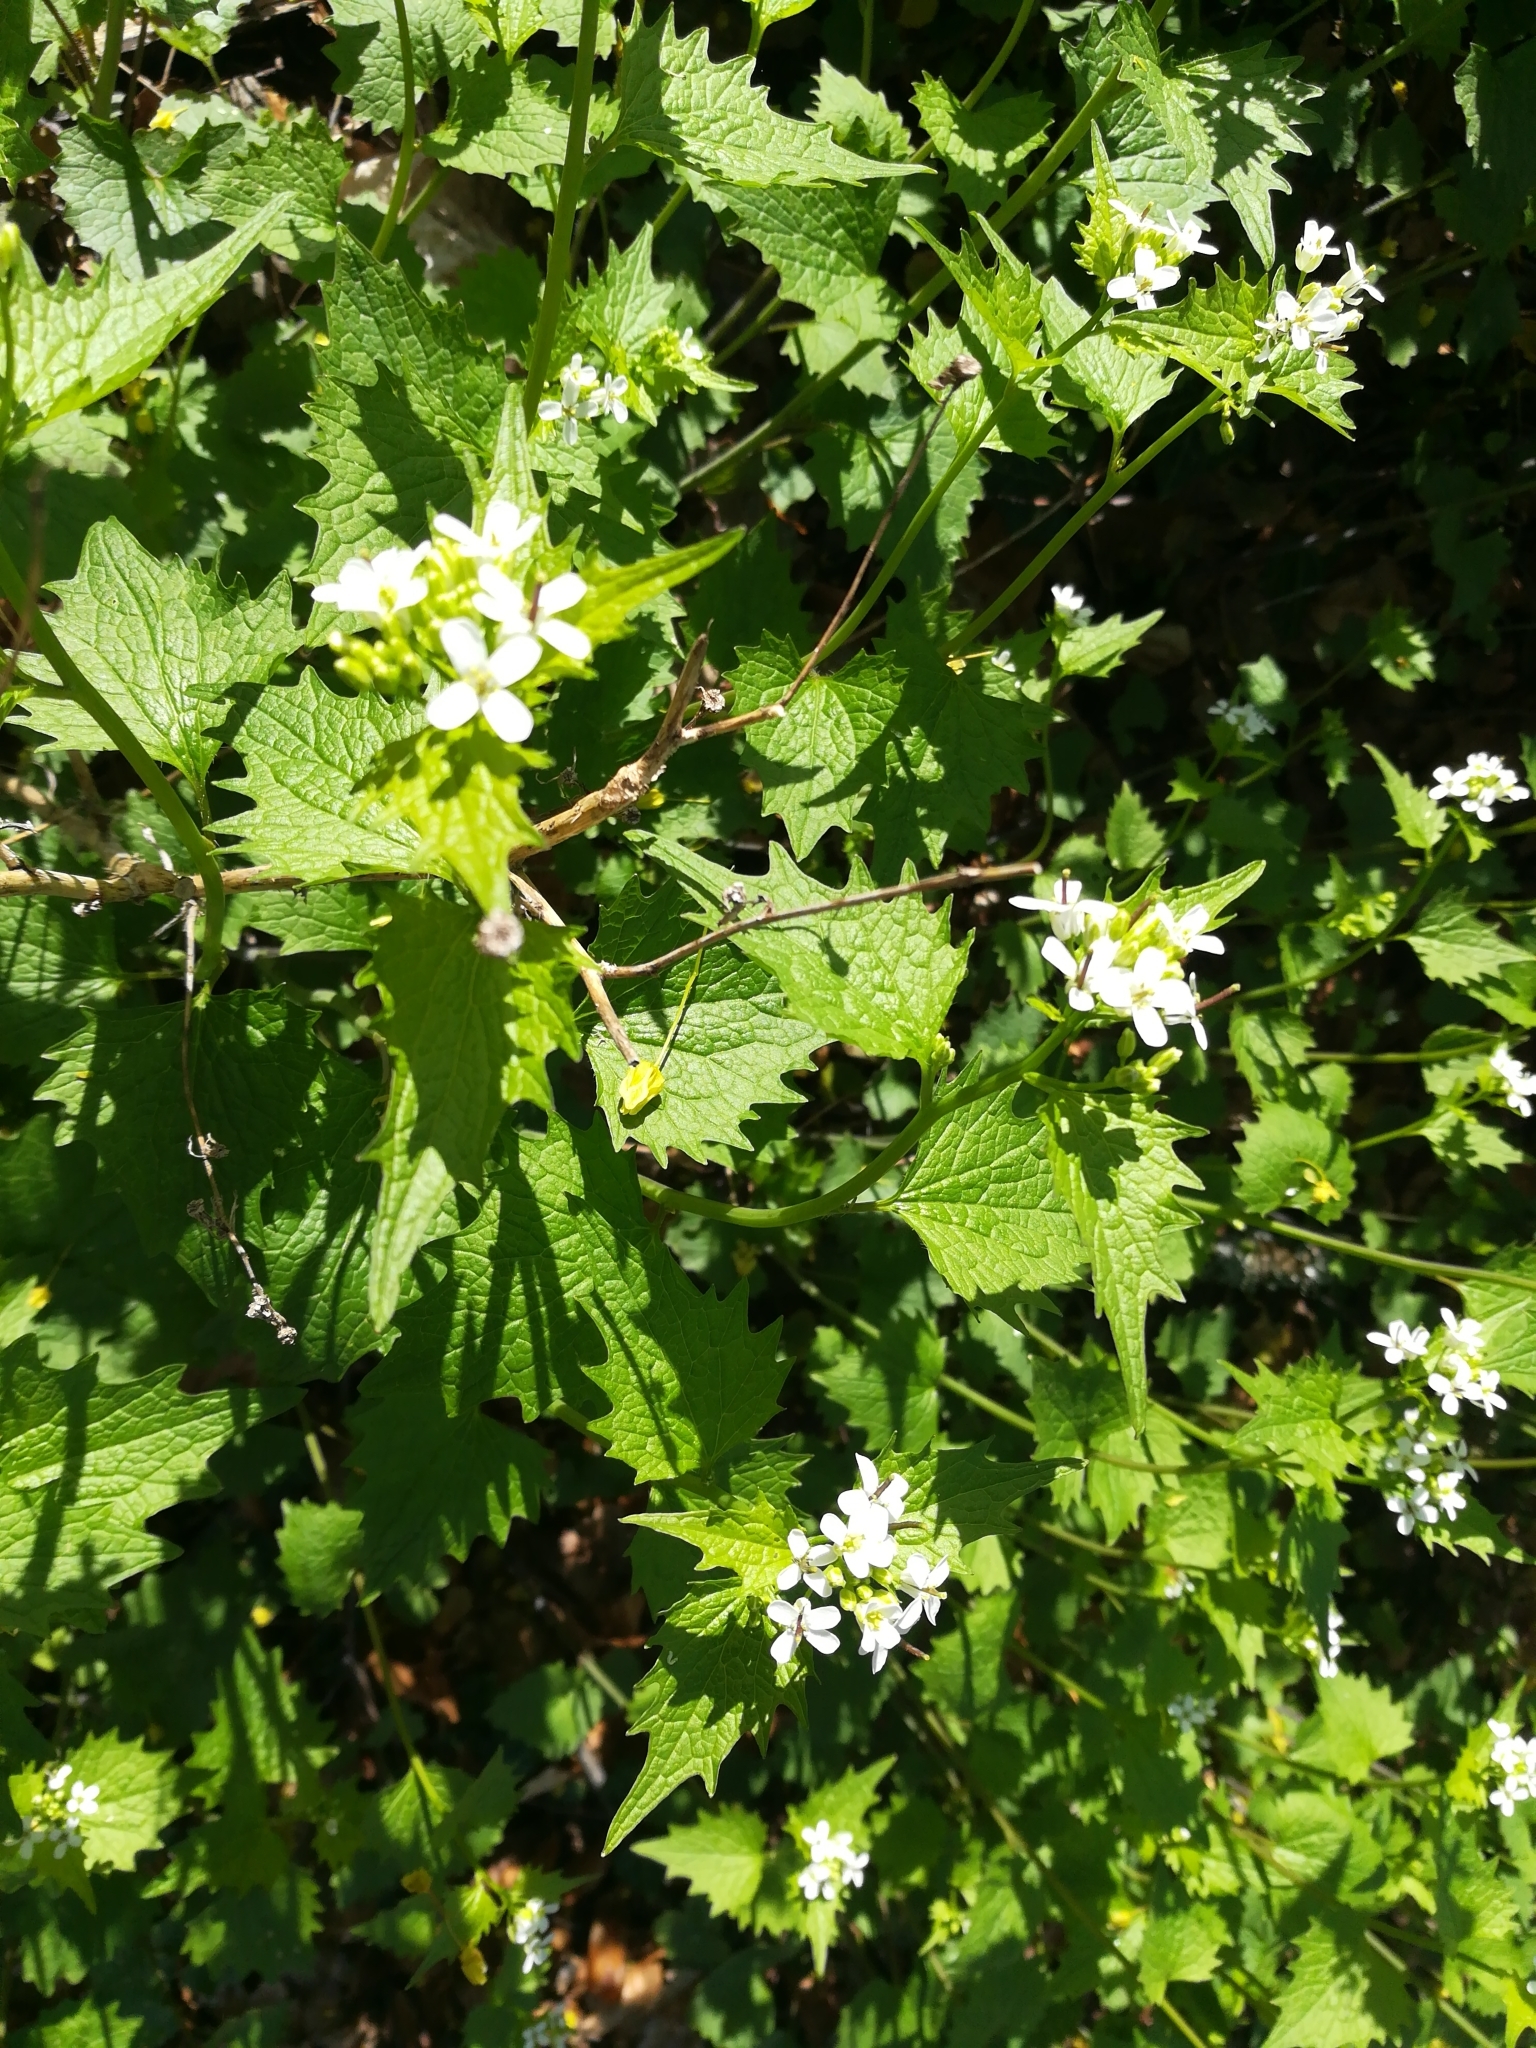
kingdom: Plantae
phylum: Tracheophyta
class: Magnoliopsida
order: Brassicales
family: Brassicaceae
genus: Alliaria
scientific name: Alliaria petiolata
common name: Garlic mustard
